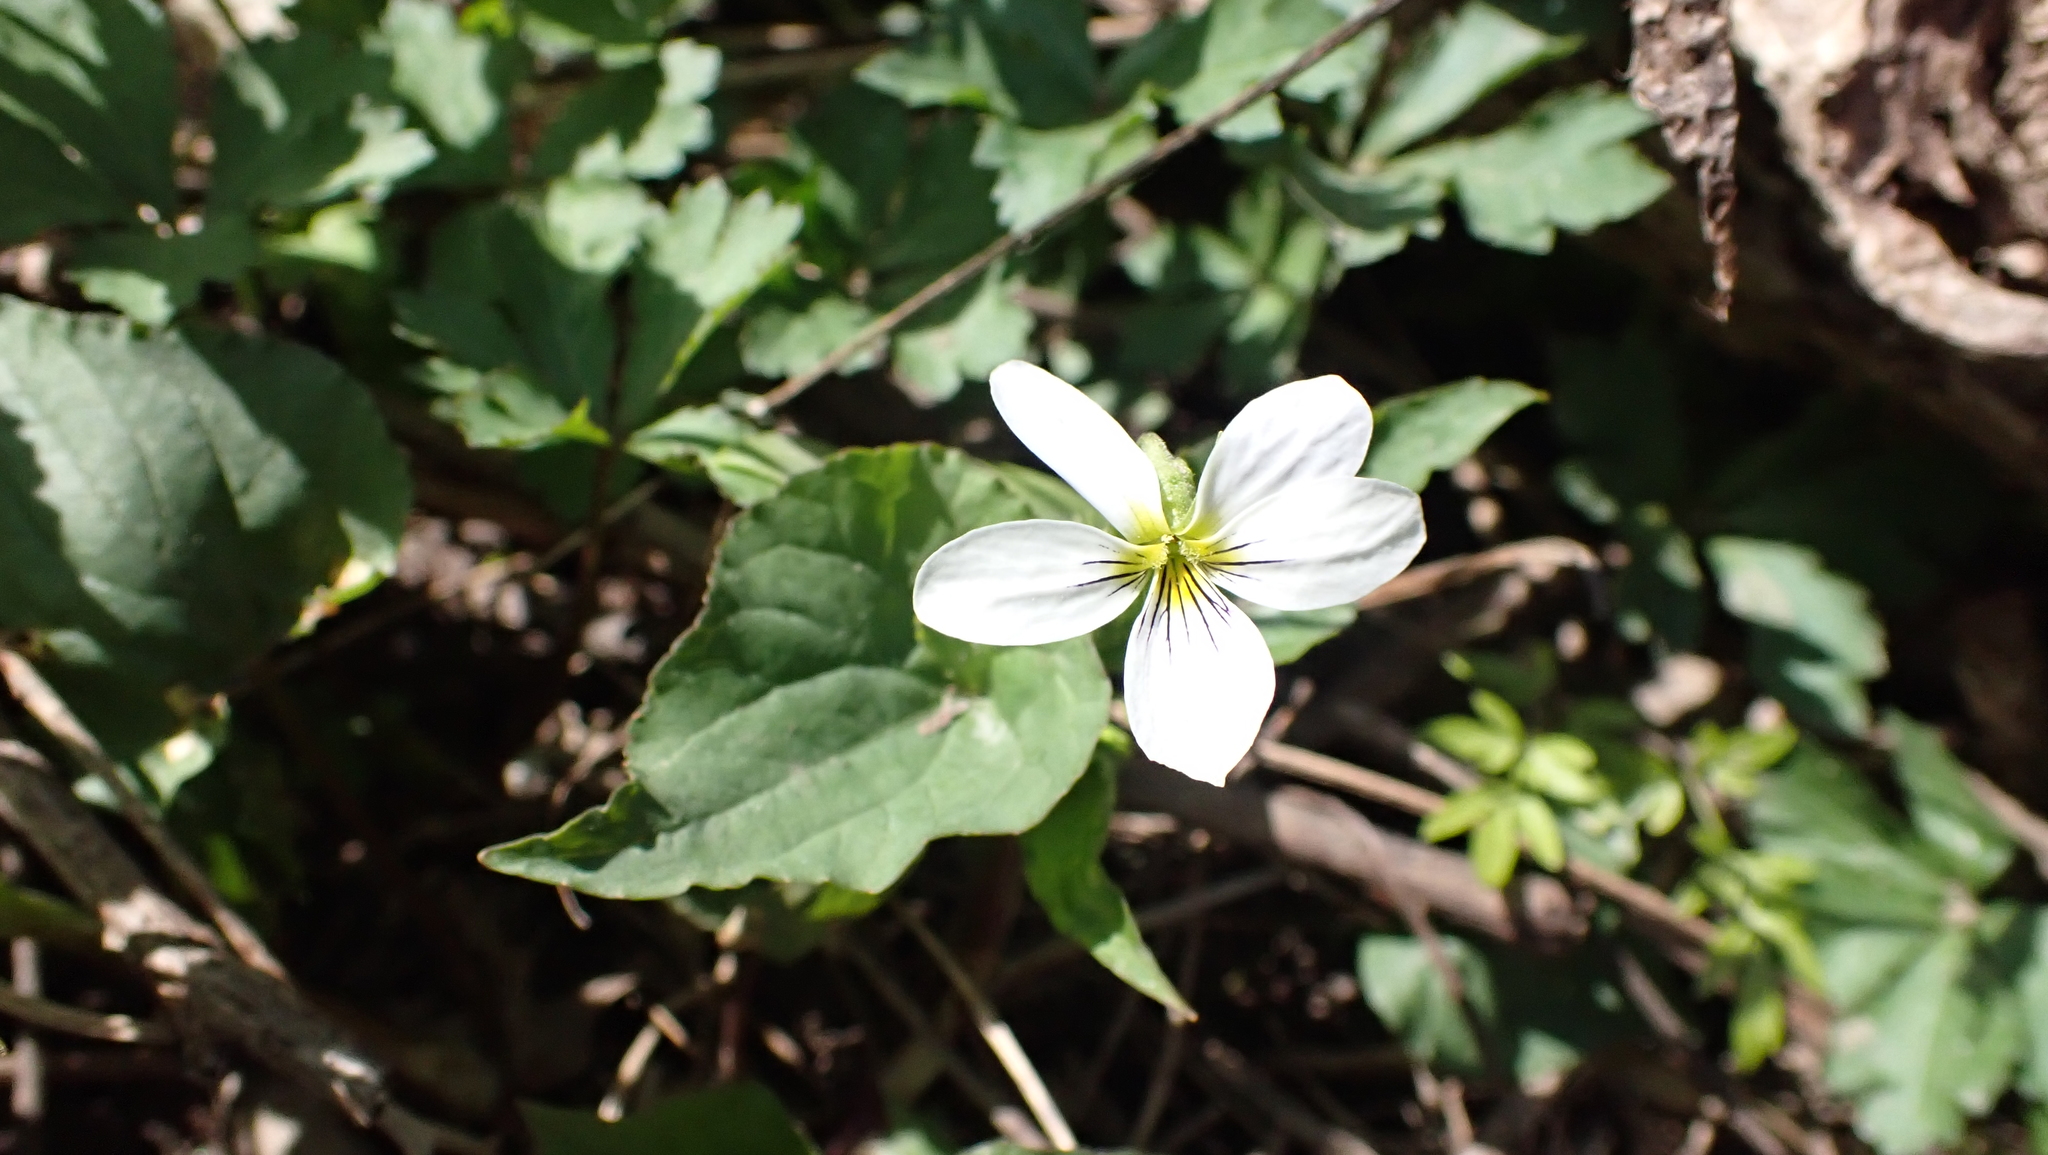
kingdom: Plantae
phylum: Tracheophyta
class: Magnoliopsida
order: Malpighiales
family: Violaceae
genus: Viola
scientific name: Viola canadensis
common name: Canada violet
